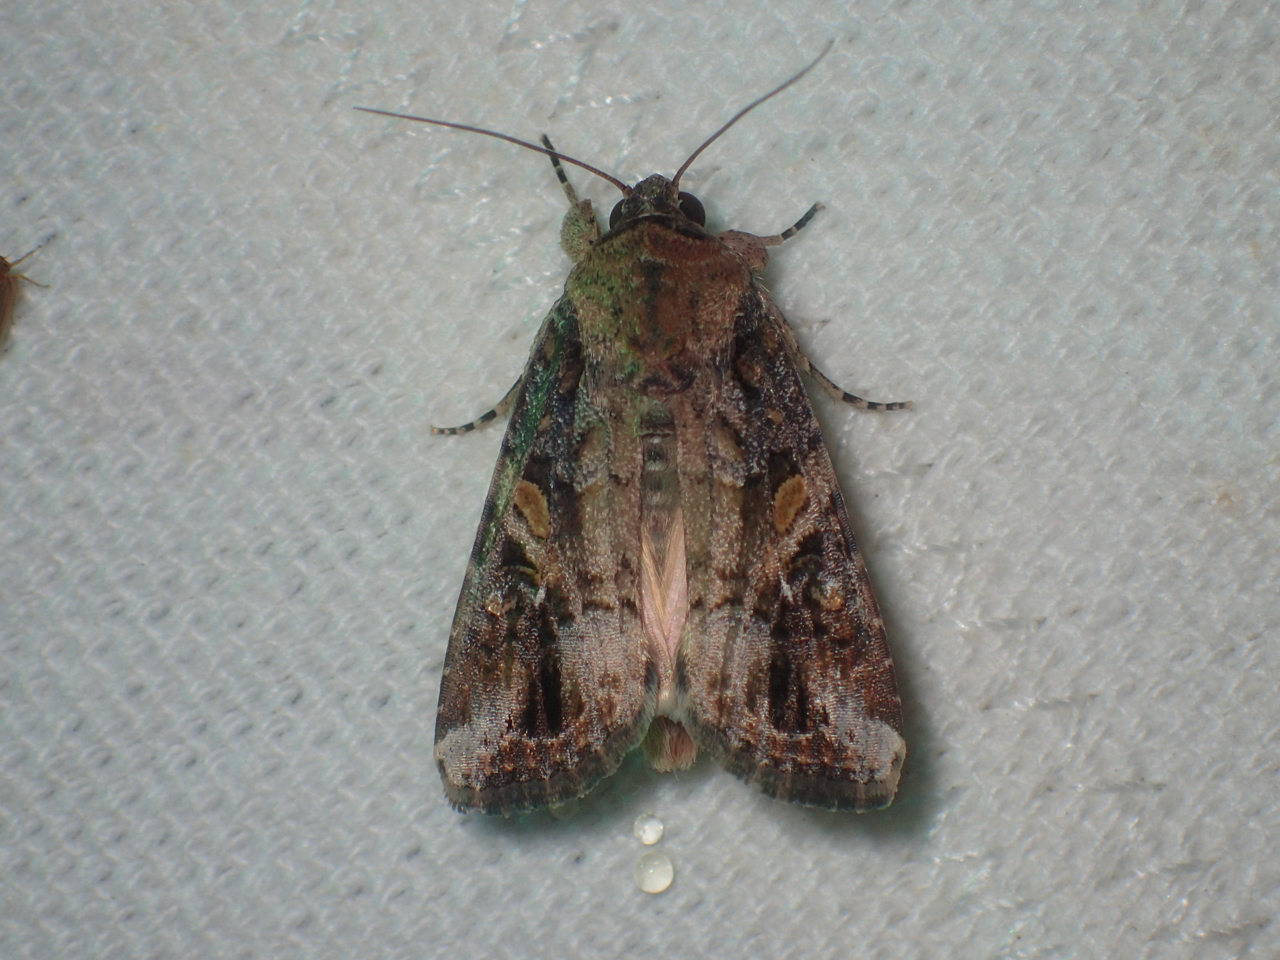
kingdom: Animalia
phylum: Arthropoda
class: Insecta
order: Lepidoptera
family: Noctuidae
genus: Spodoptera
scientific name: Spodoptera frugiperda
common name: Fall armyworm
